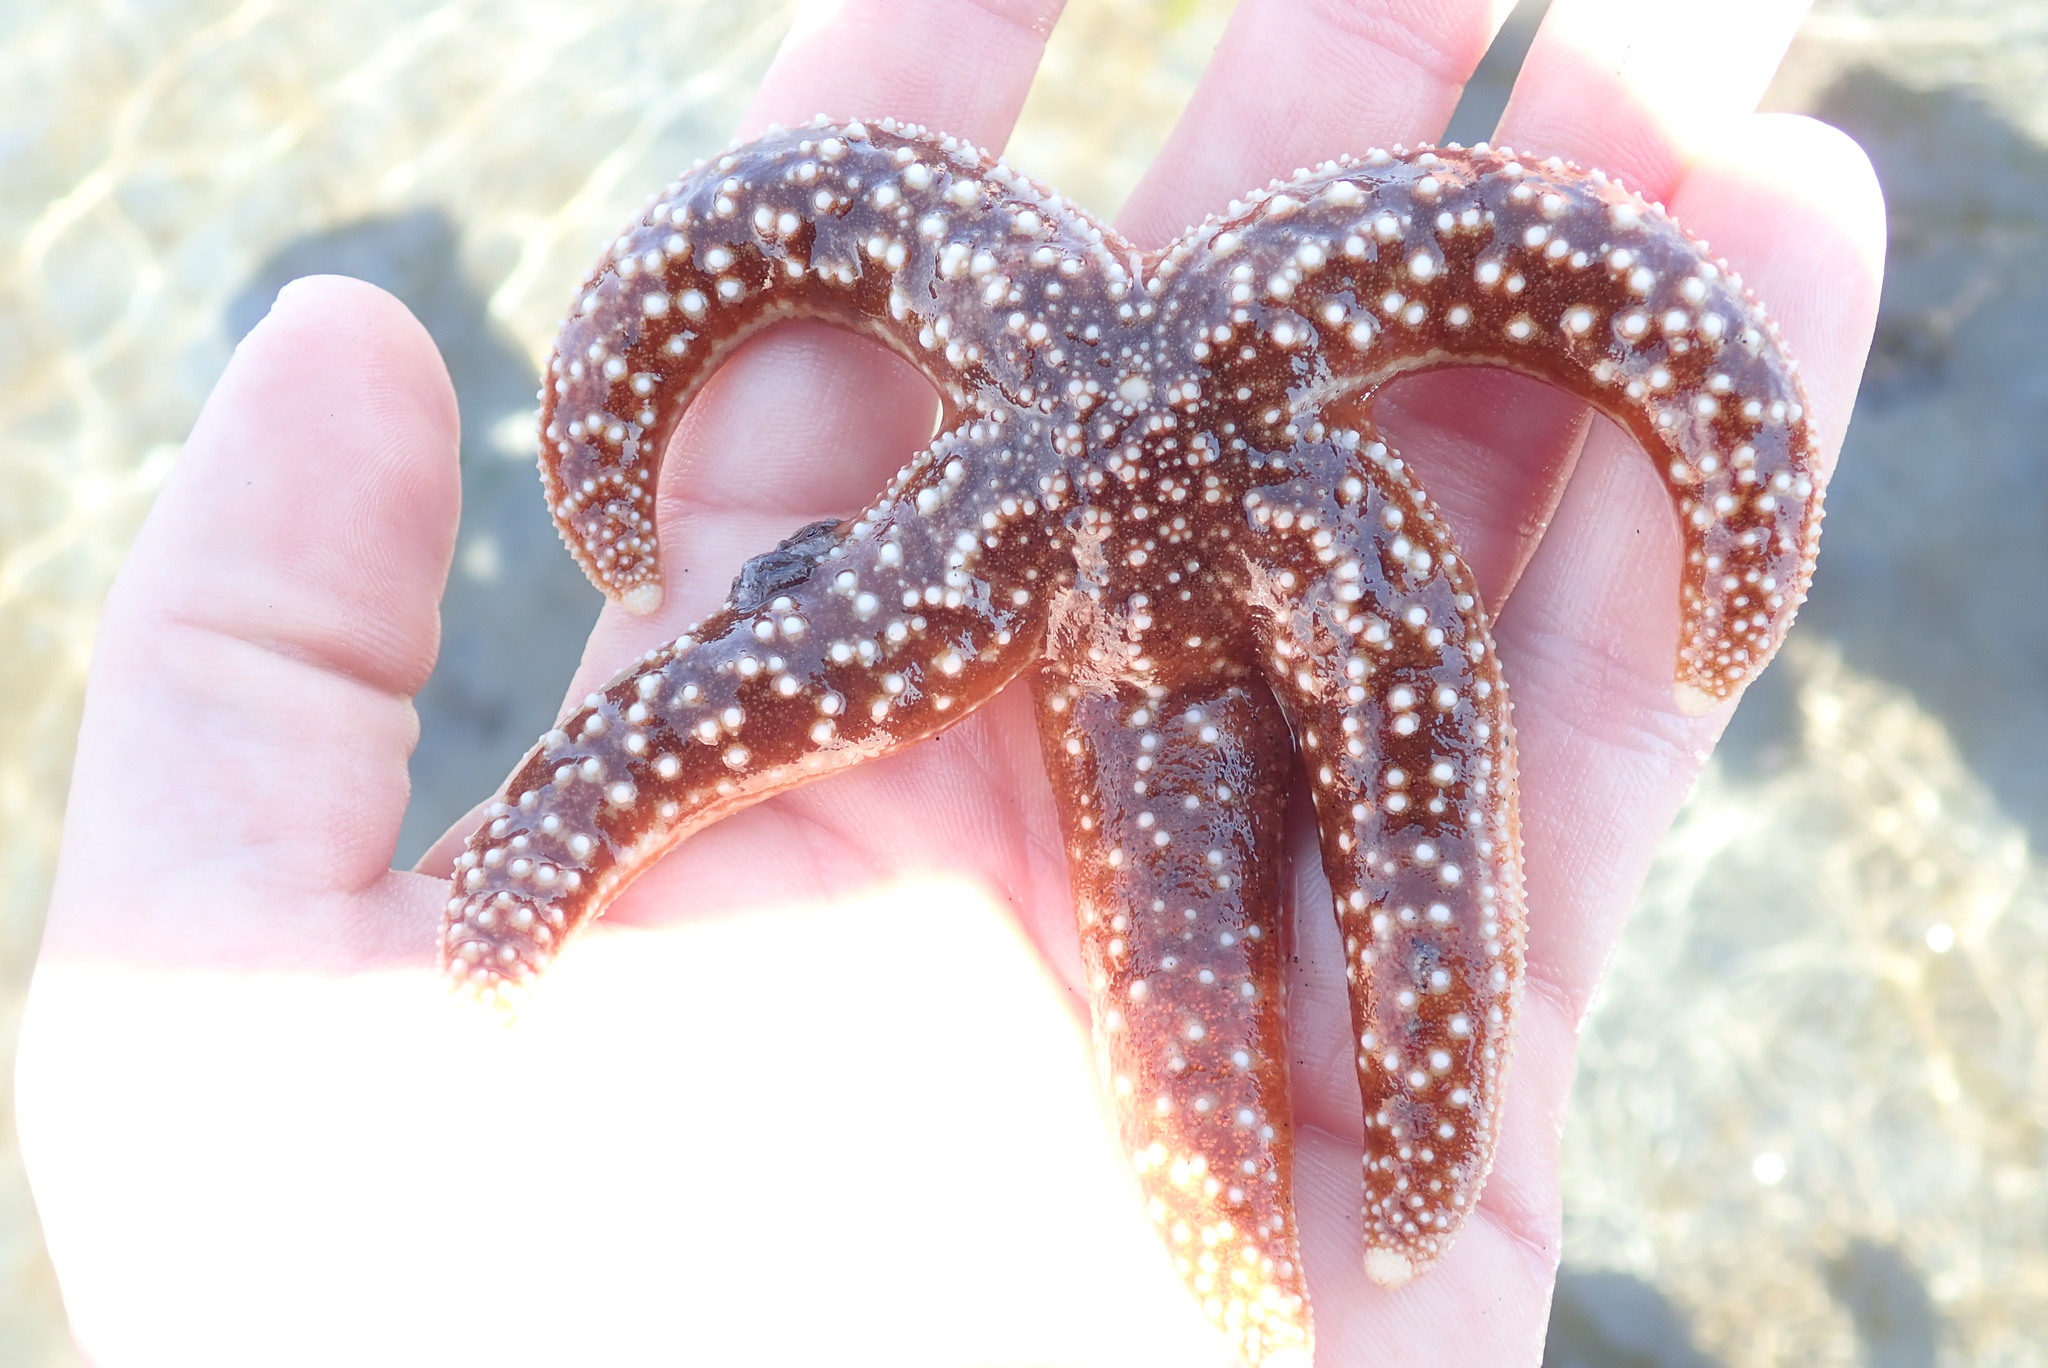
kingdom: Animalia
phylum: Echinodermata
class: Asteroidea
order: Forcipulatida
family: Asteriidae
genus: Evasterias
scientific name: Evasterias troschelii
